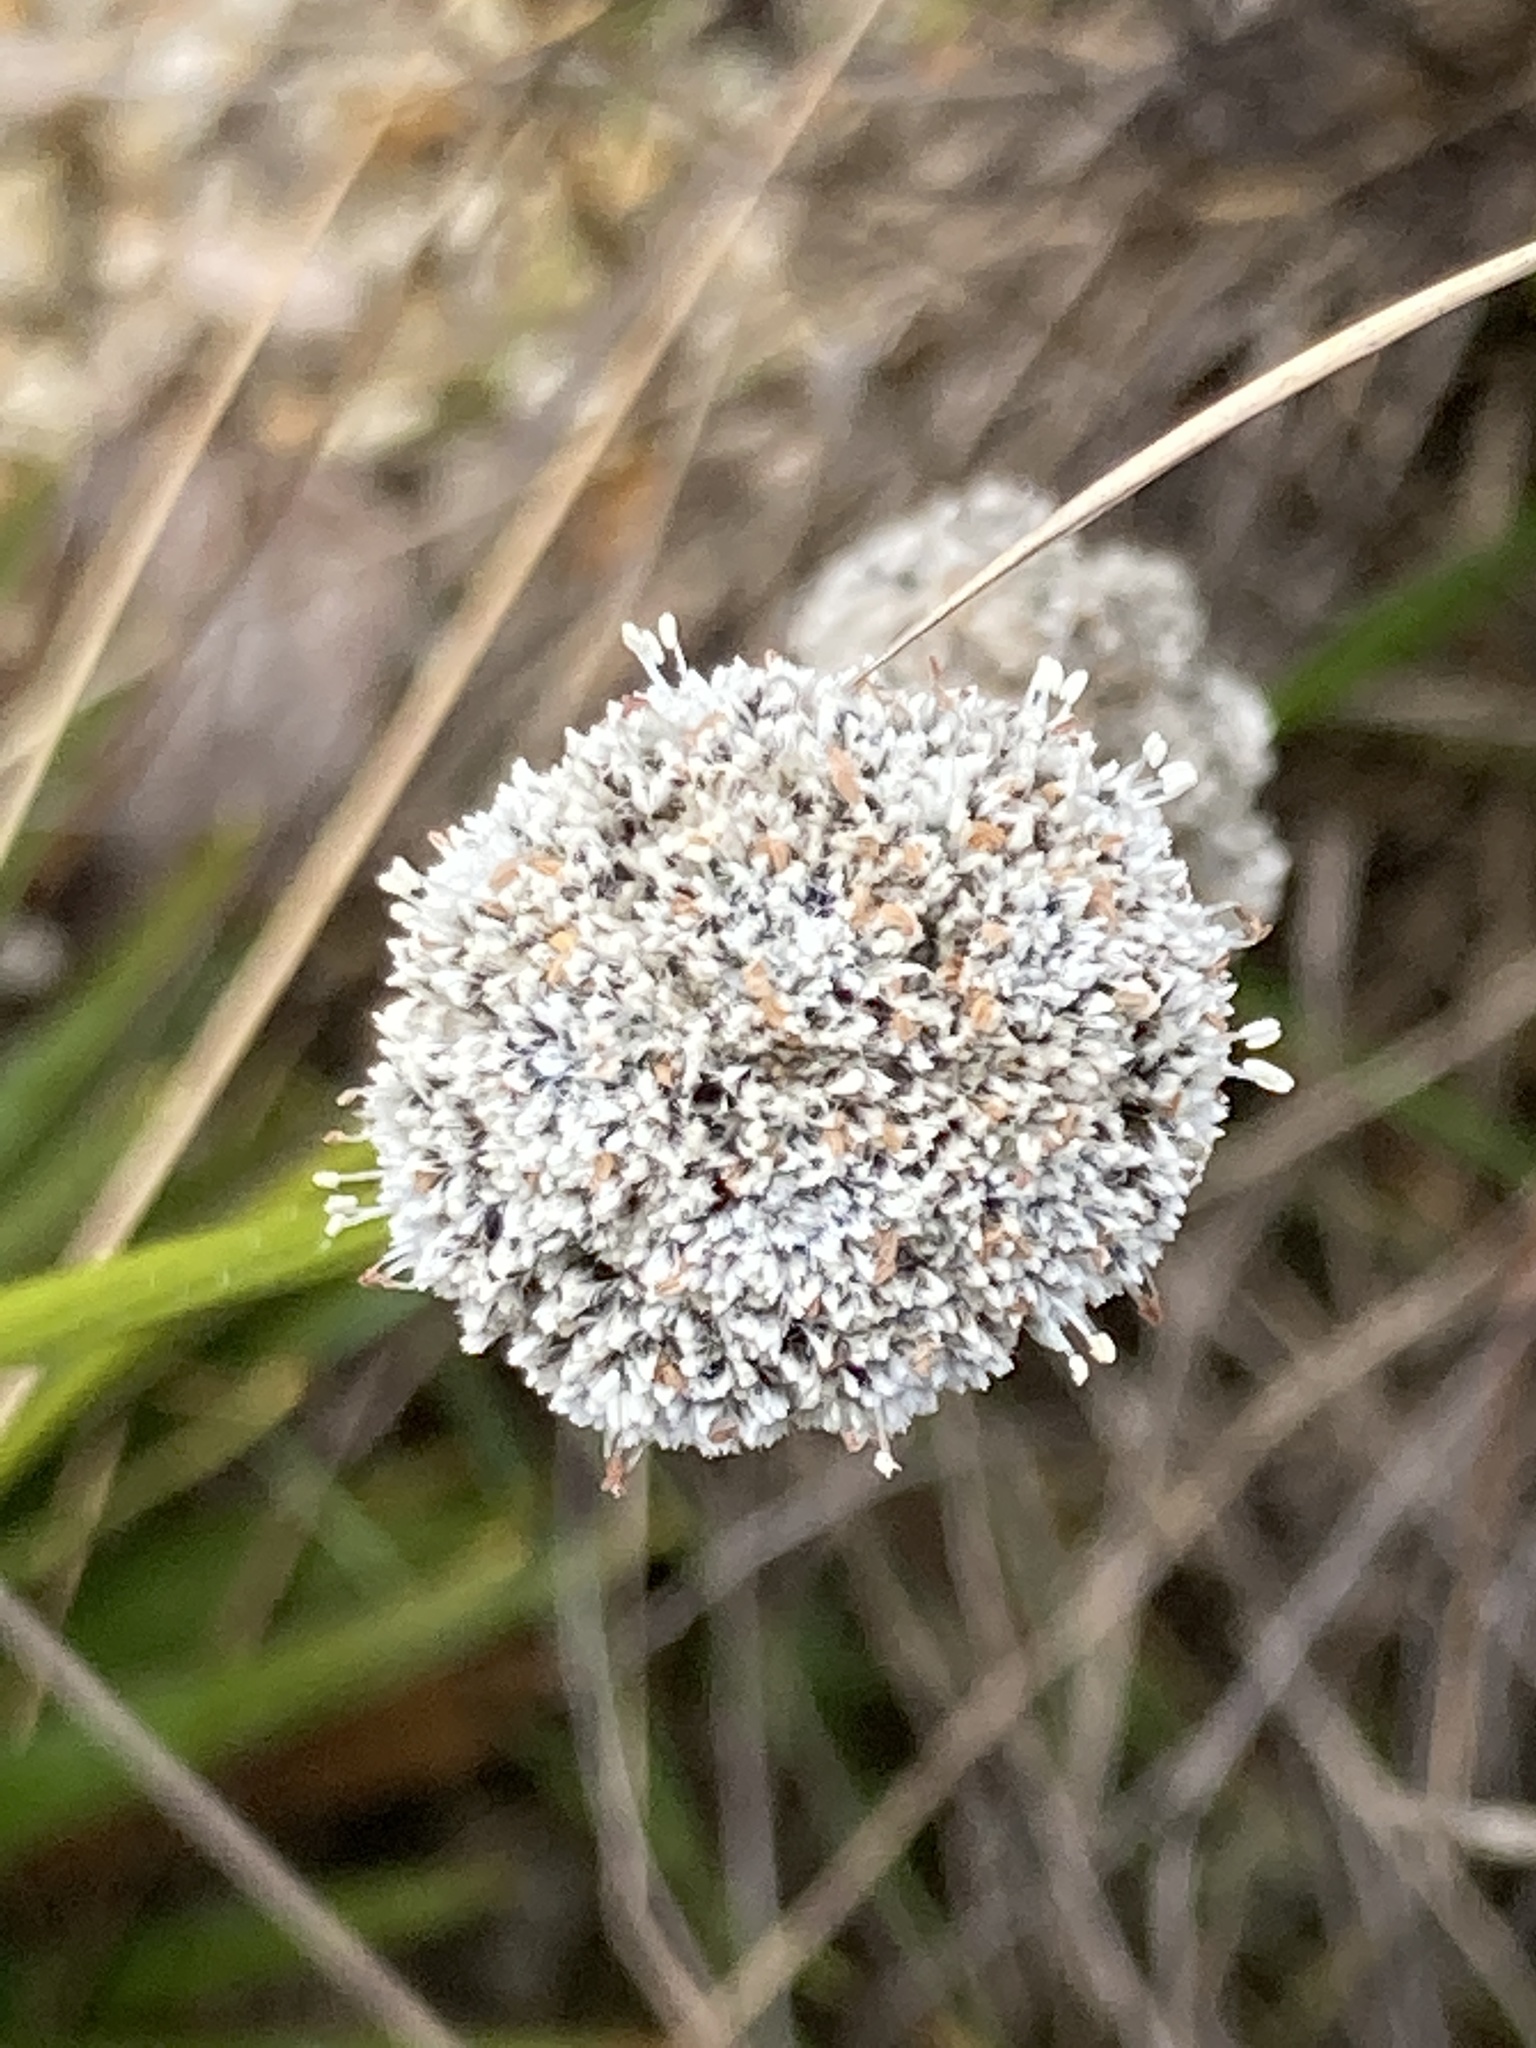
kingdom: Plantae
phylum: Tracheophyta
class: Liliopsida
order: Poales
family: Eriocaulaceae
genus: Paepalanthus
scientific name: Paepalanthus alpinus
